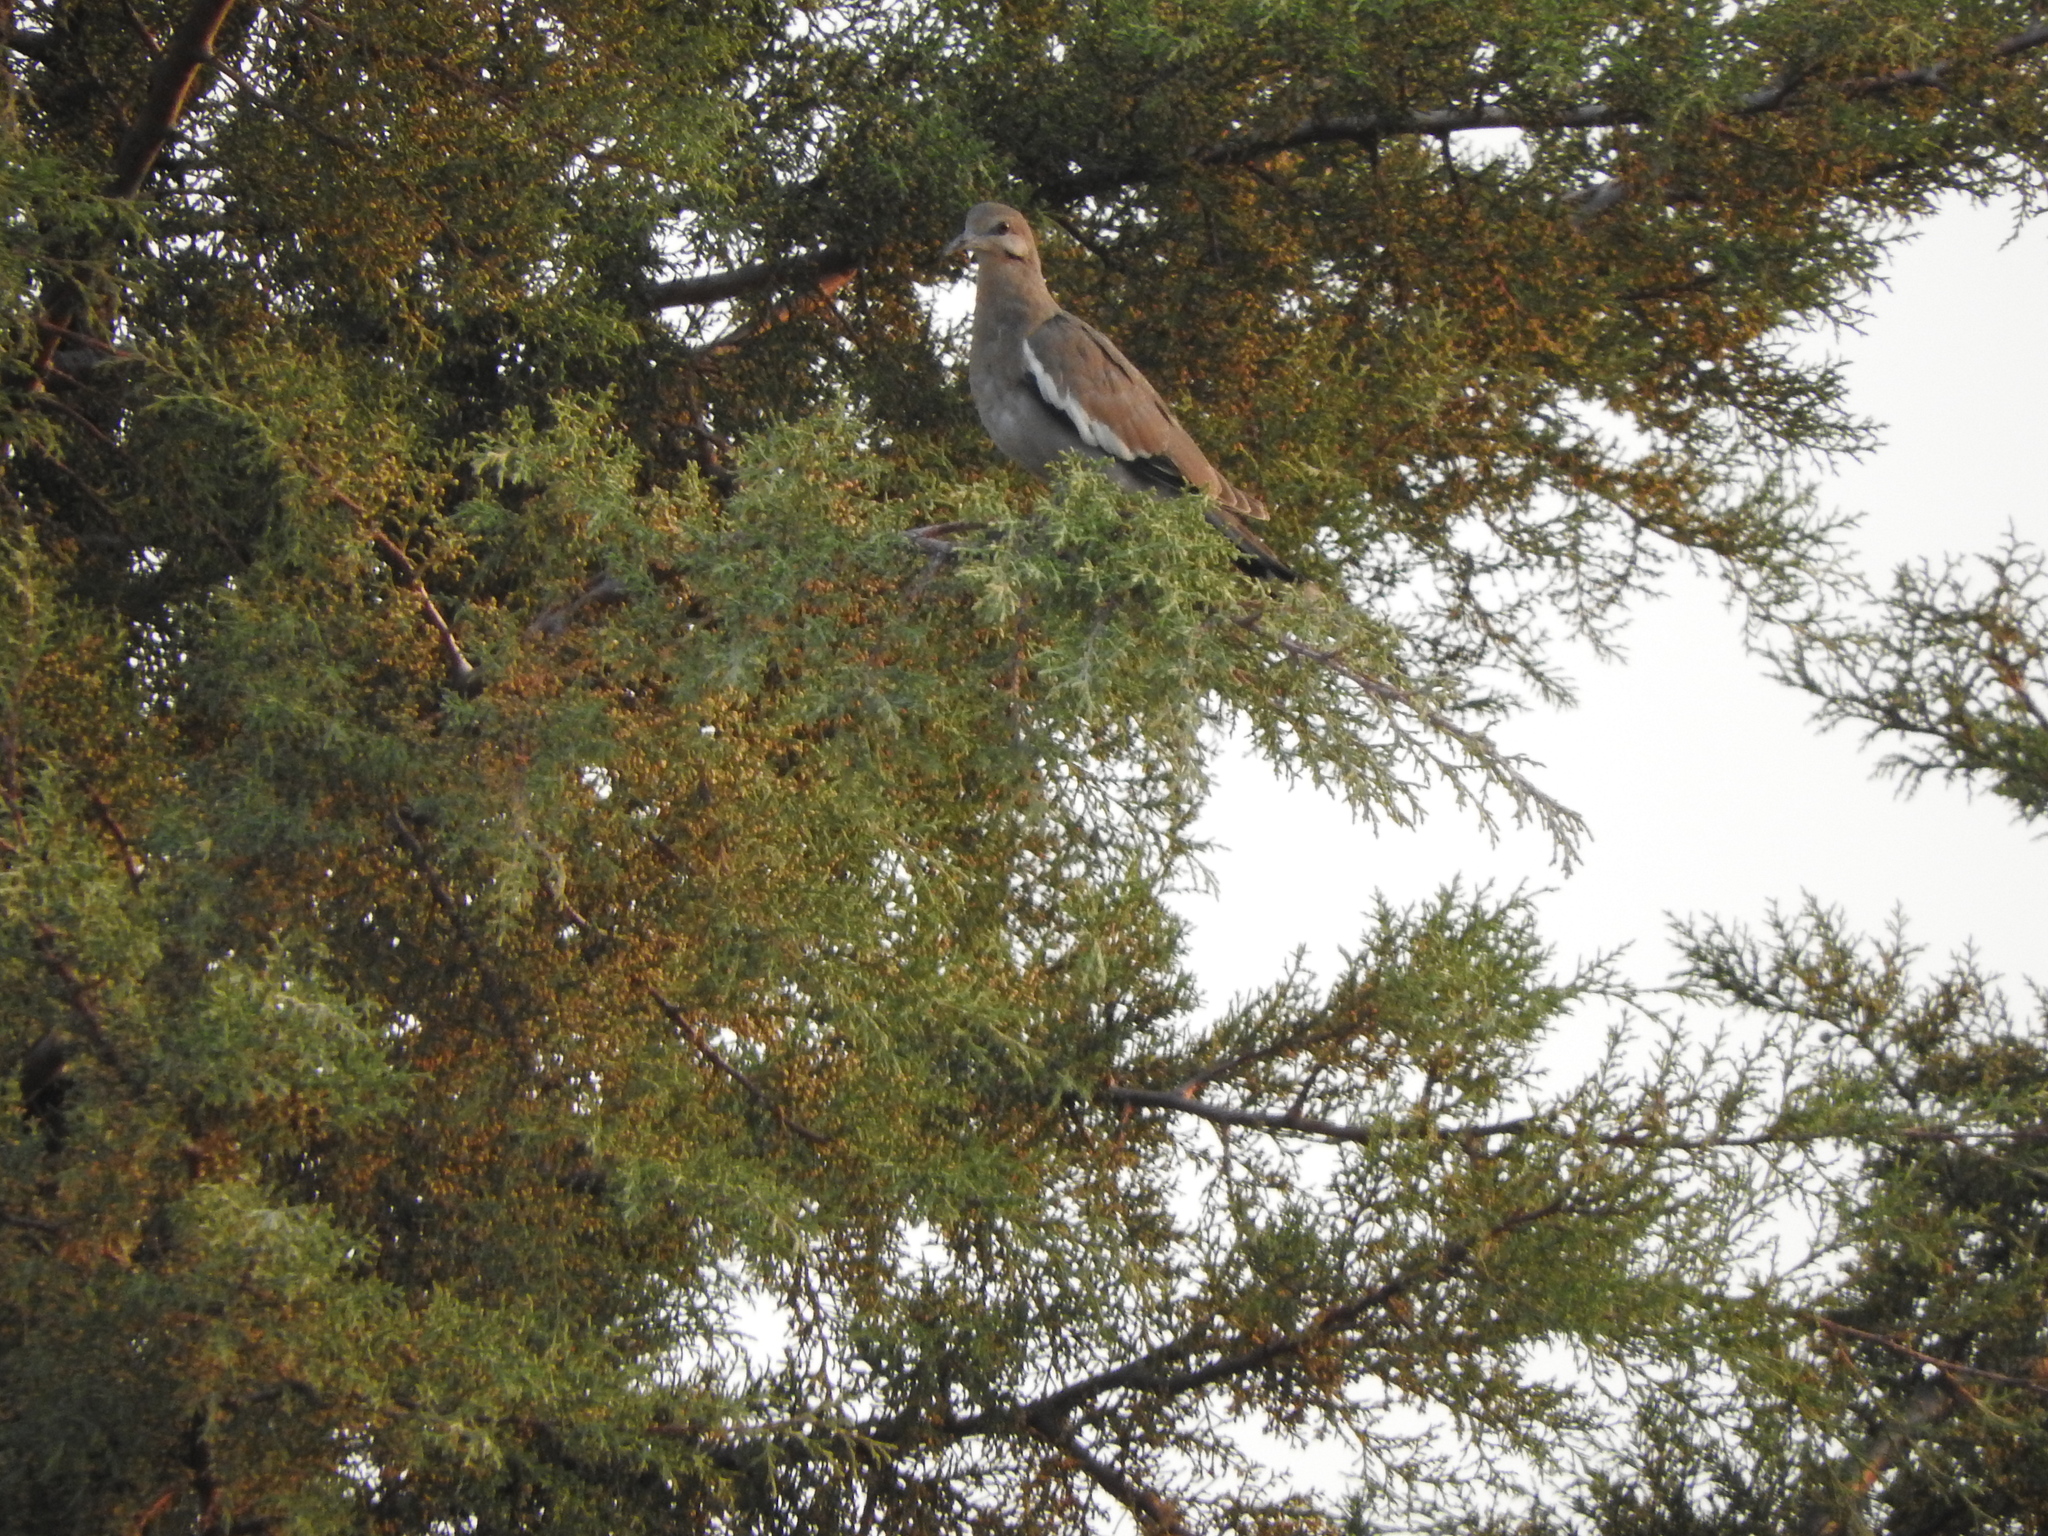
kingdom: Animalia
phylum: Chordata
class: Aves
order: Columbiformes
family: Columbidae
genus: Zenaida
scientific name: Zenaida asiatica
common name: White-winged dove
